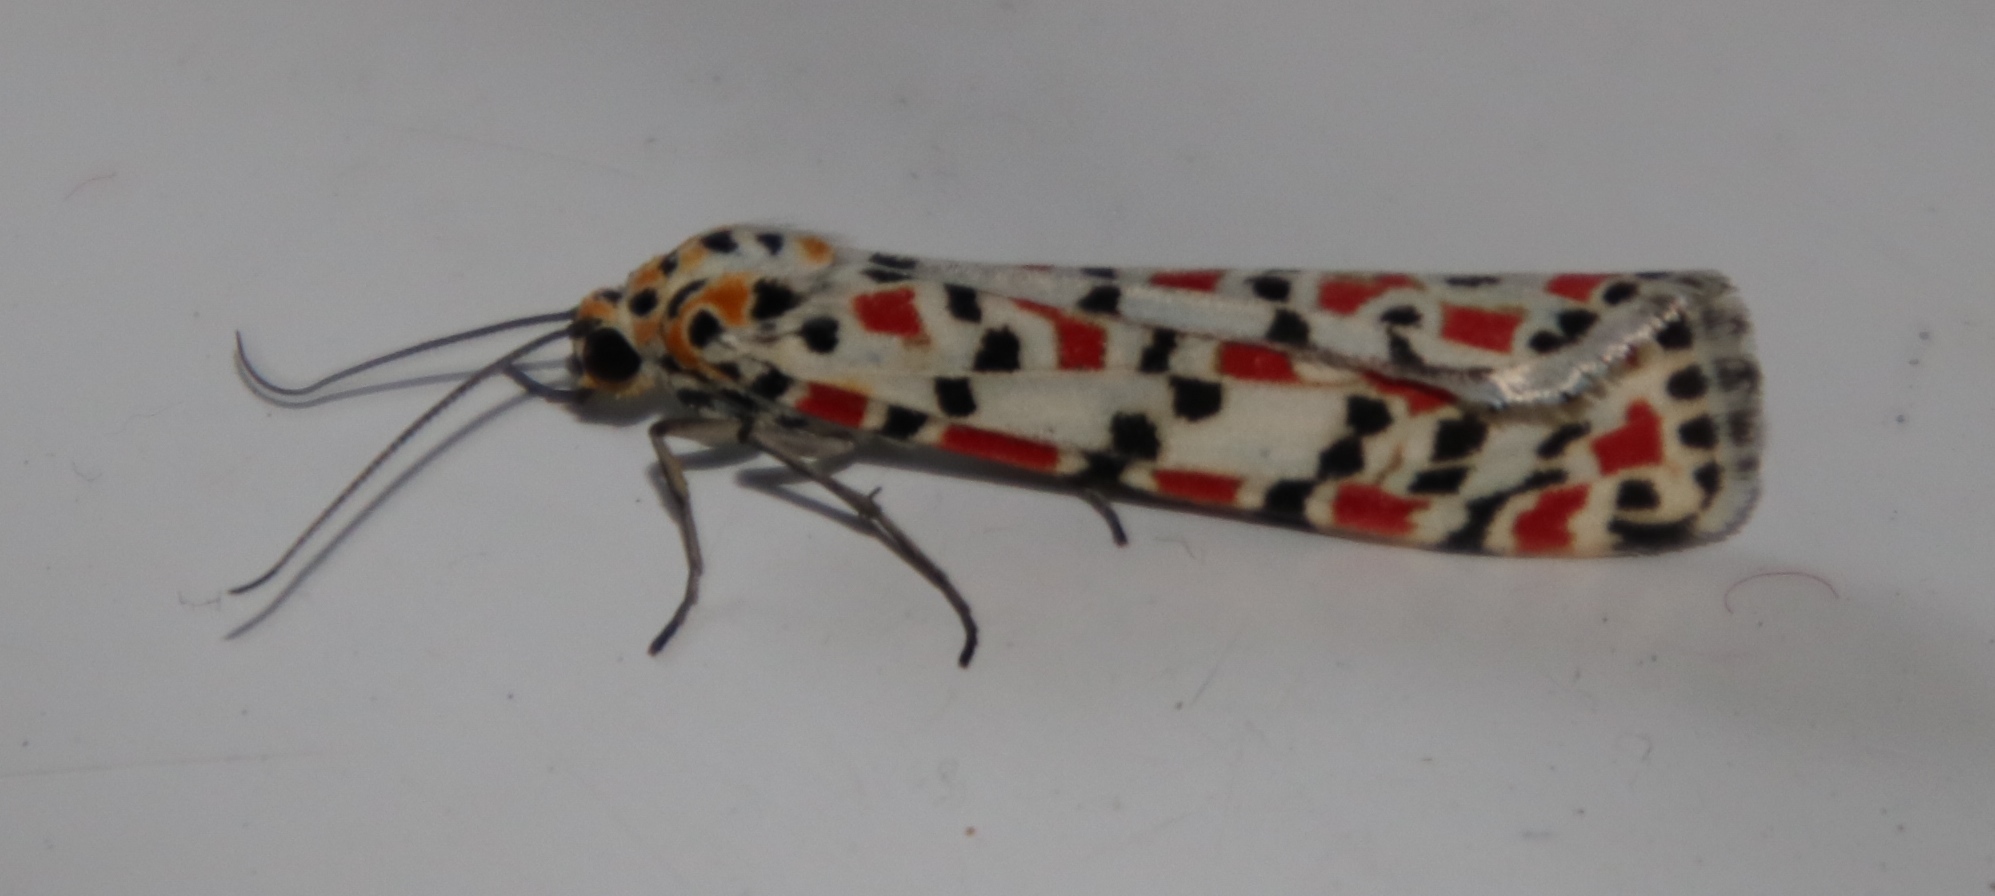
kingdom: Animalia
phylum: Arthropoda
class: Insecta
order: Lepidoptera
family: Erebidae
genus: Utetheisa
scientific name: Utetheisa pulchella
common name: Crimson speckled
